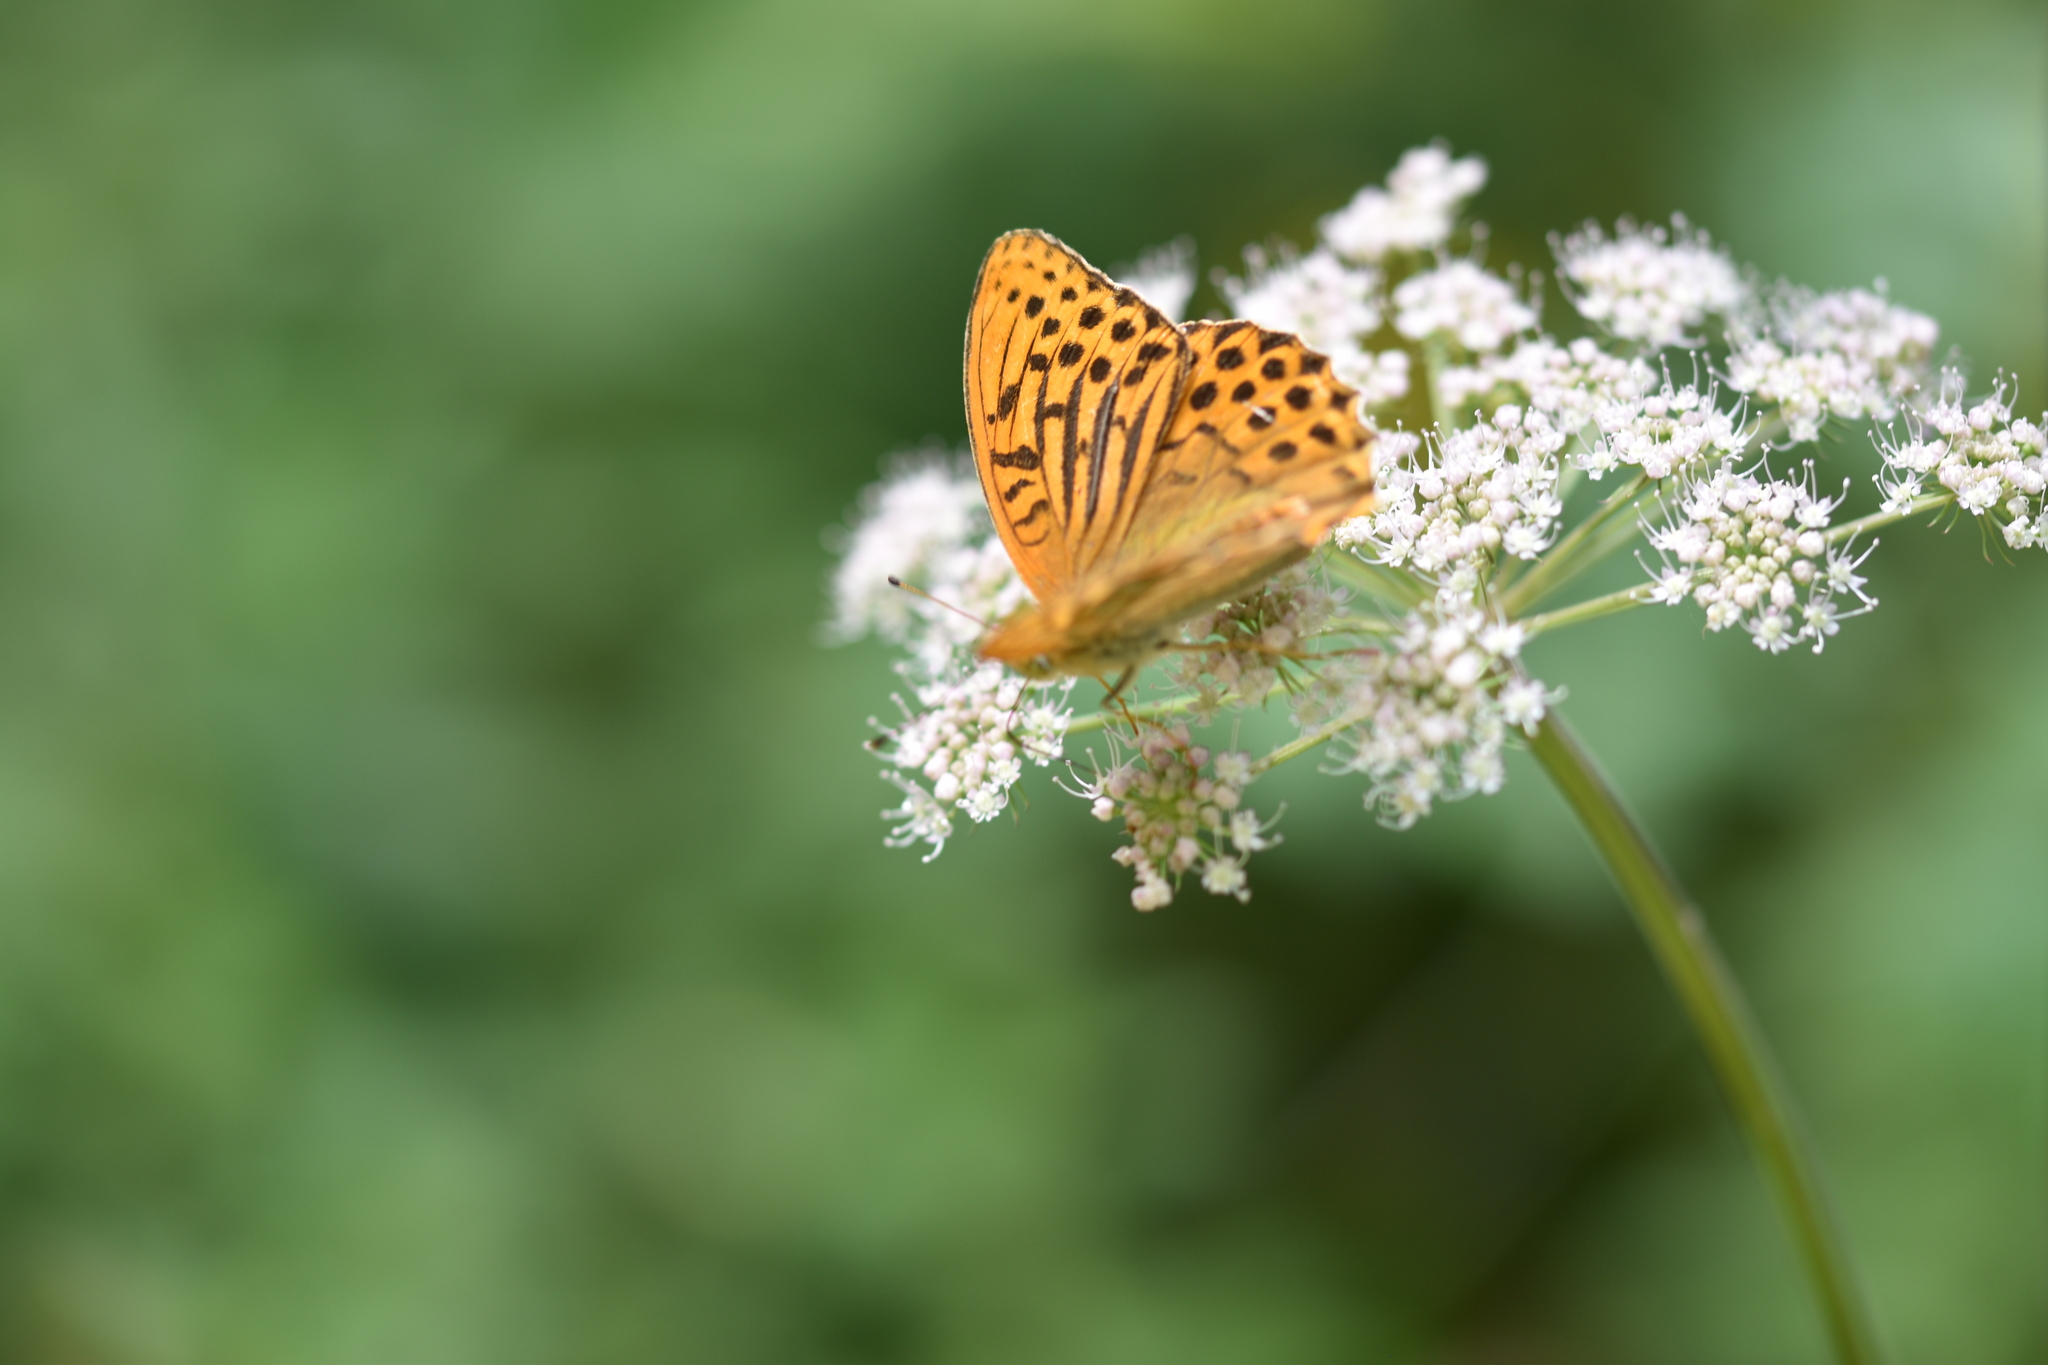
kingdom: Animalia
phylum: Arthropoda
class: Insecta
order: Lepidoptera
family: Nymphalidae
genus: Argynnis
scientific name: Argynnis paphia
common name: Silver-washed fritillary
